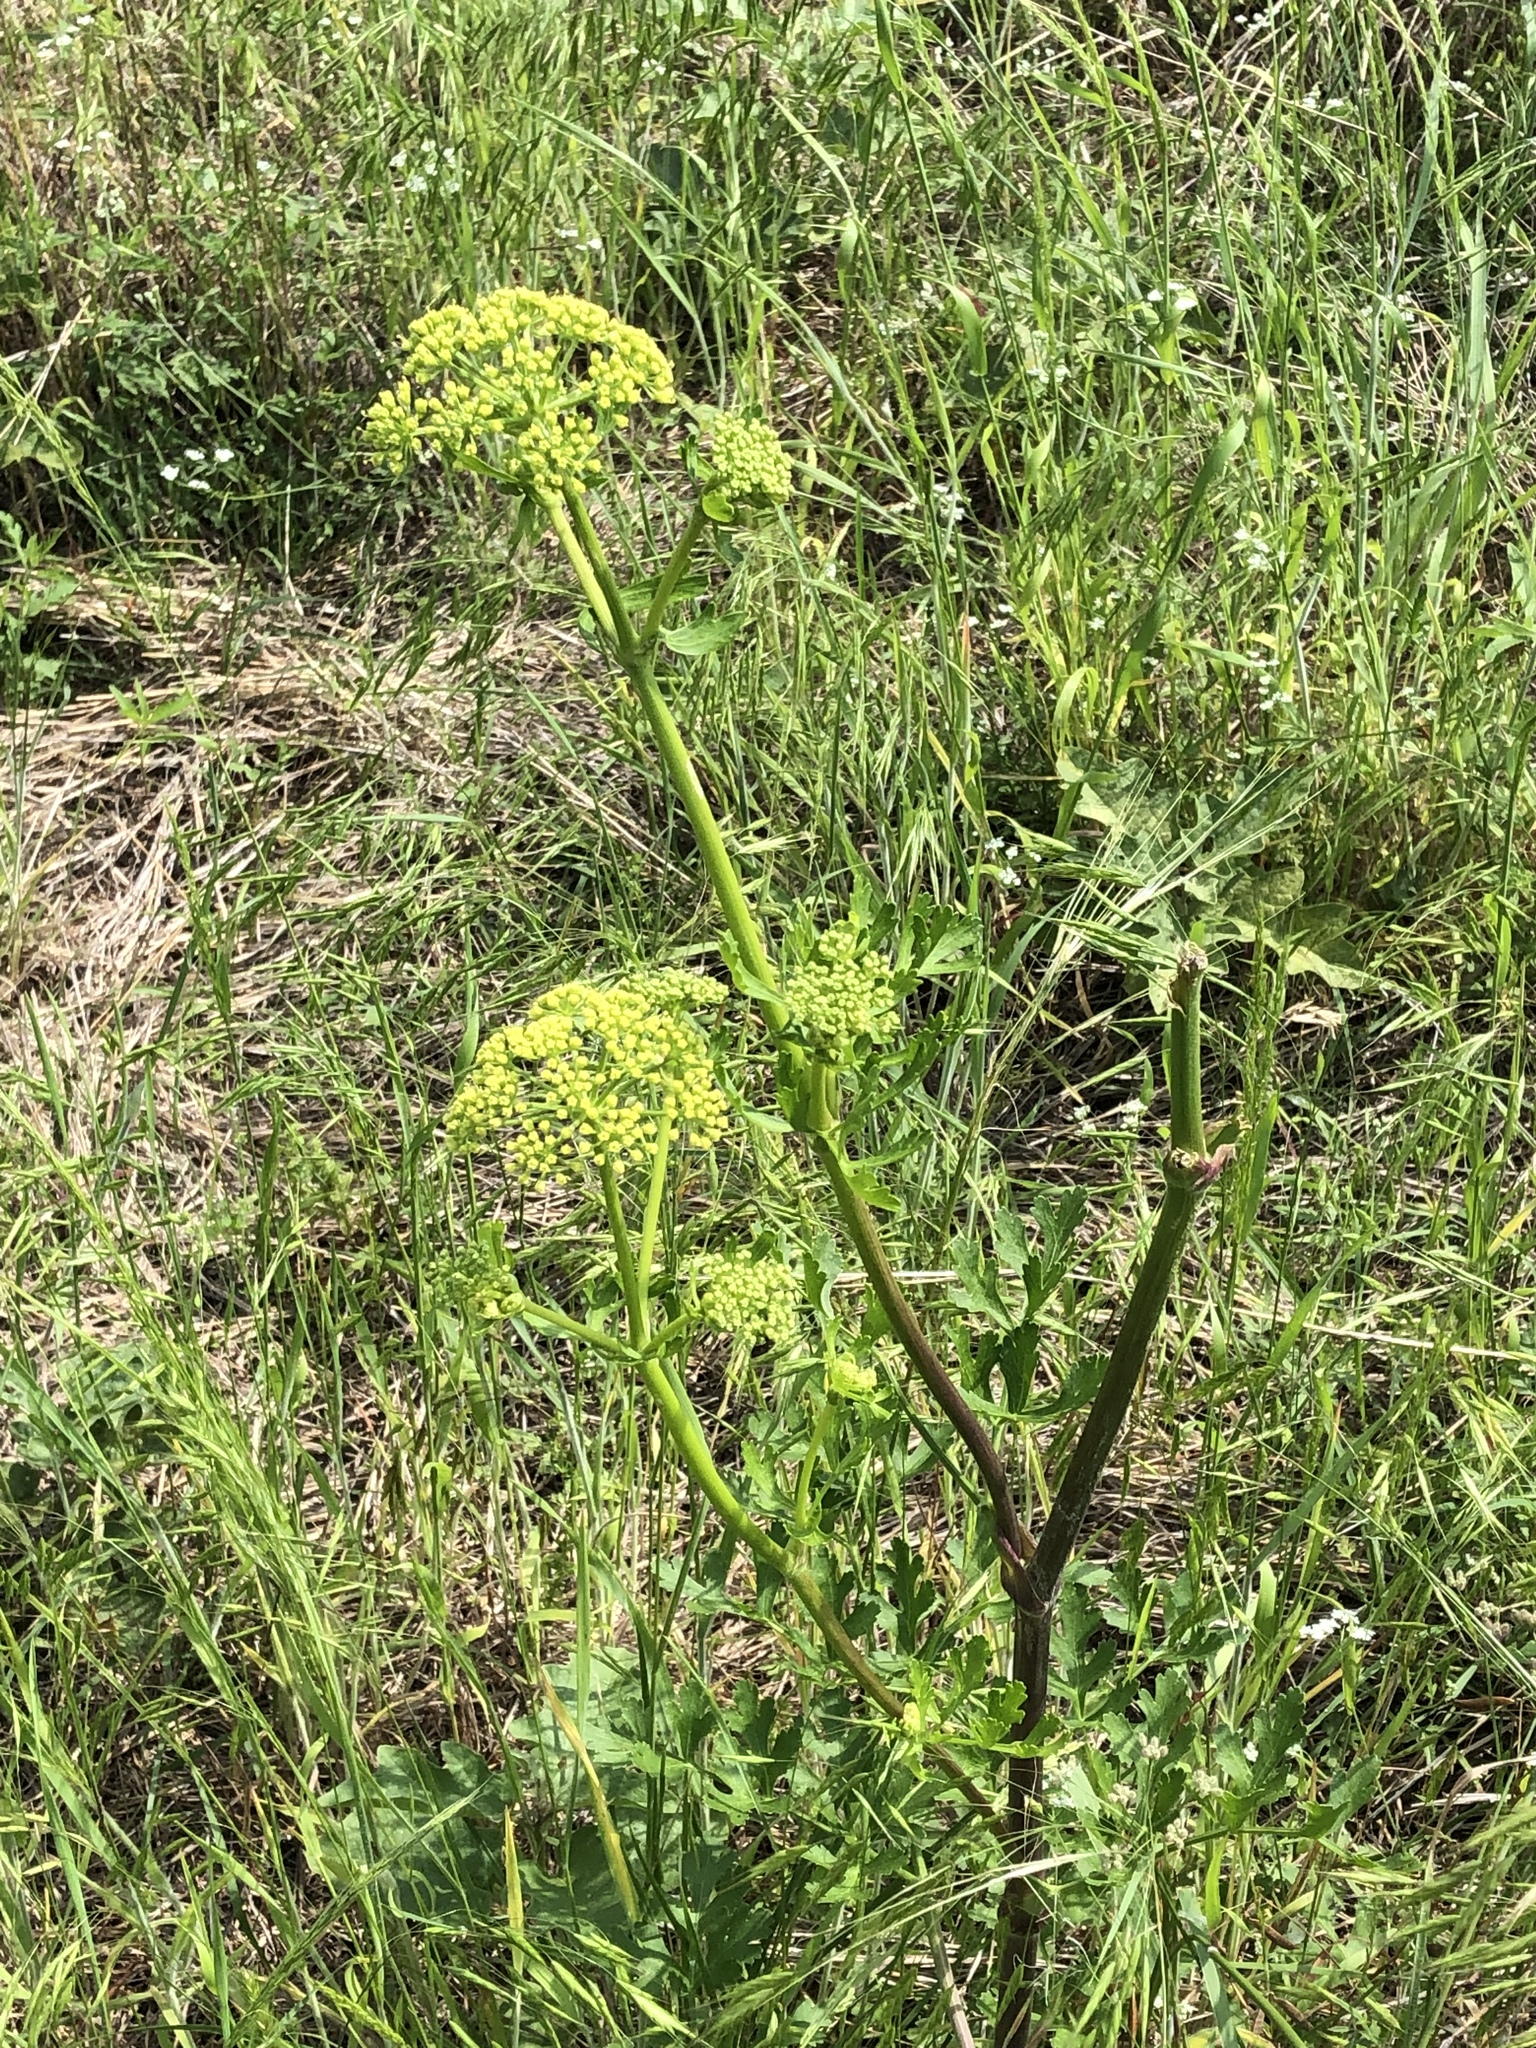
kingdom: Plantae
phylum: Tracheophyta
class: Magnoliopsida
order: Apiales
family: Apiaceae
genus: Polytaenia
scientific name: Polytaenia texana
